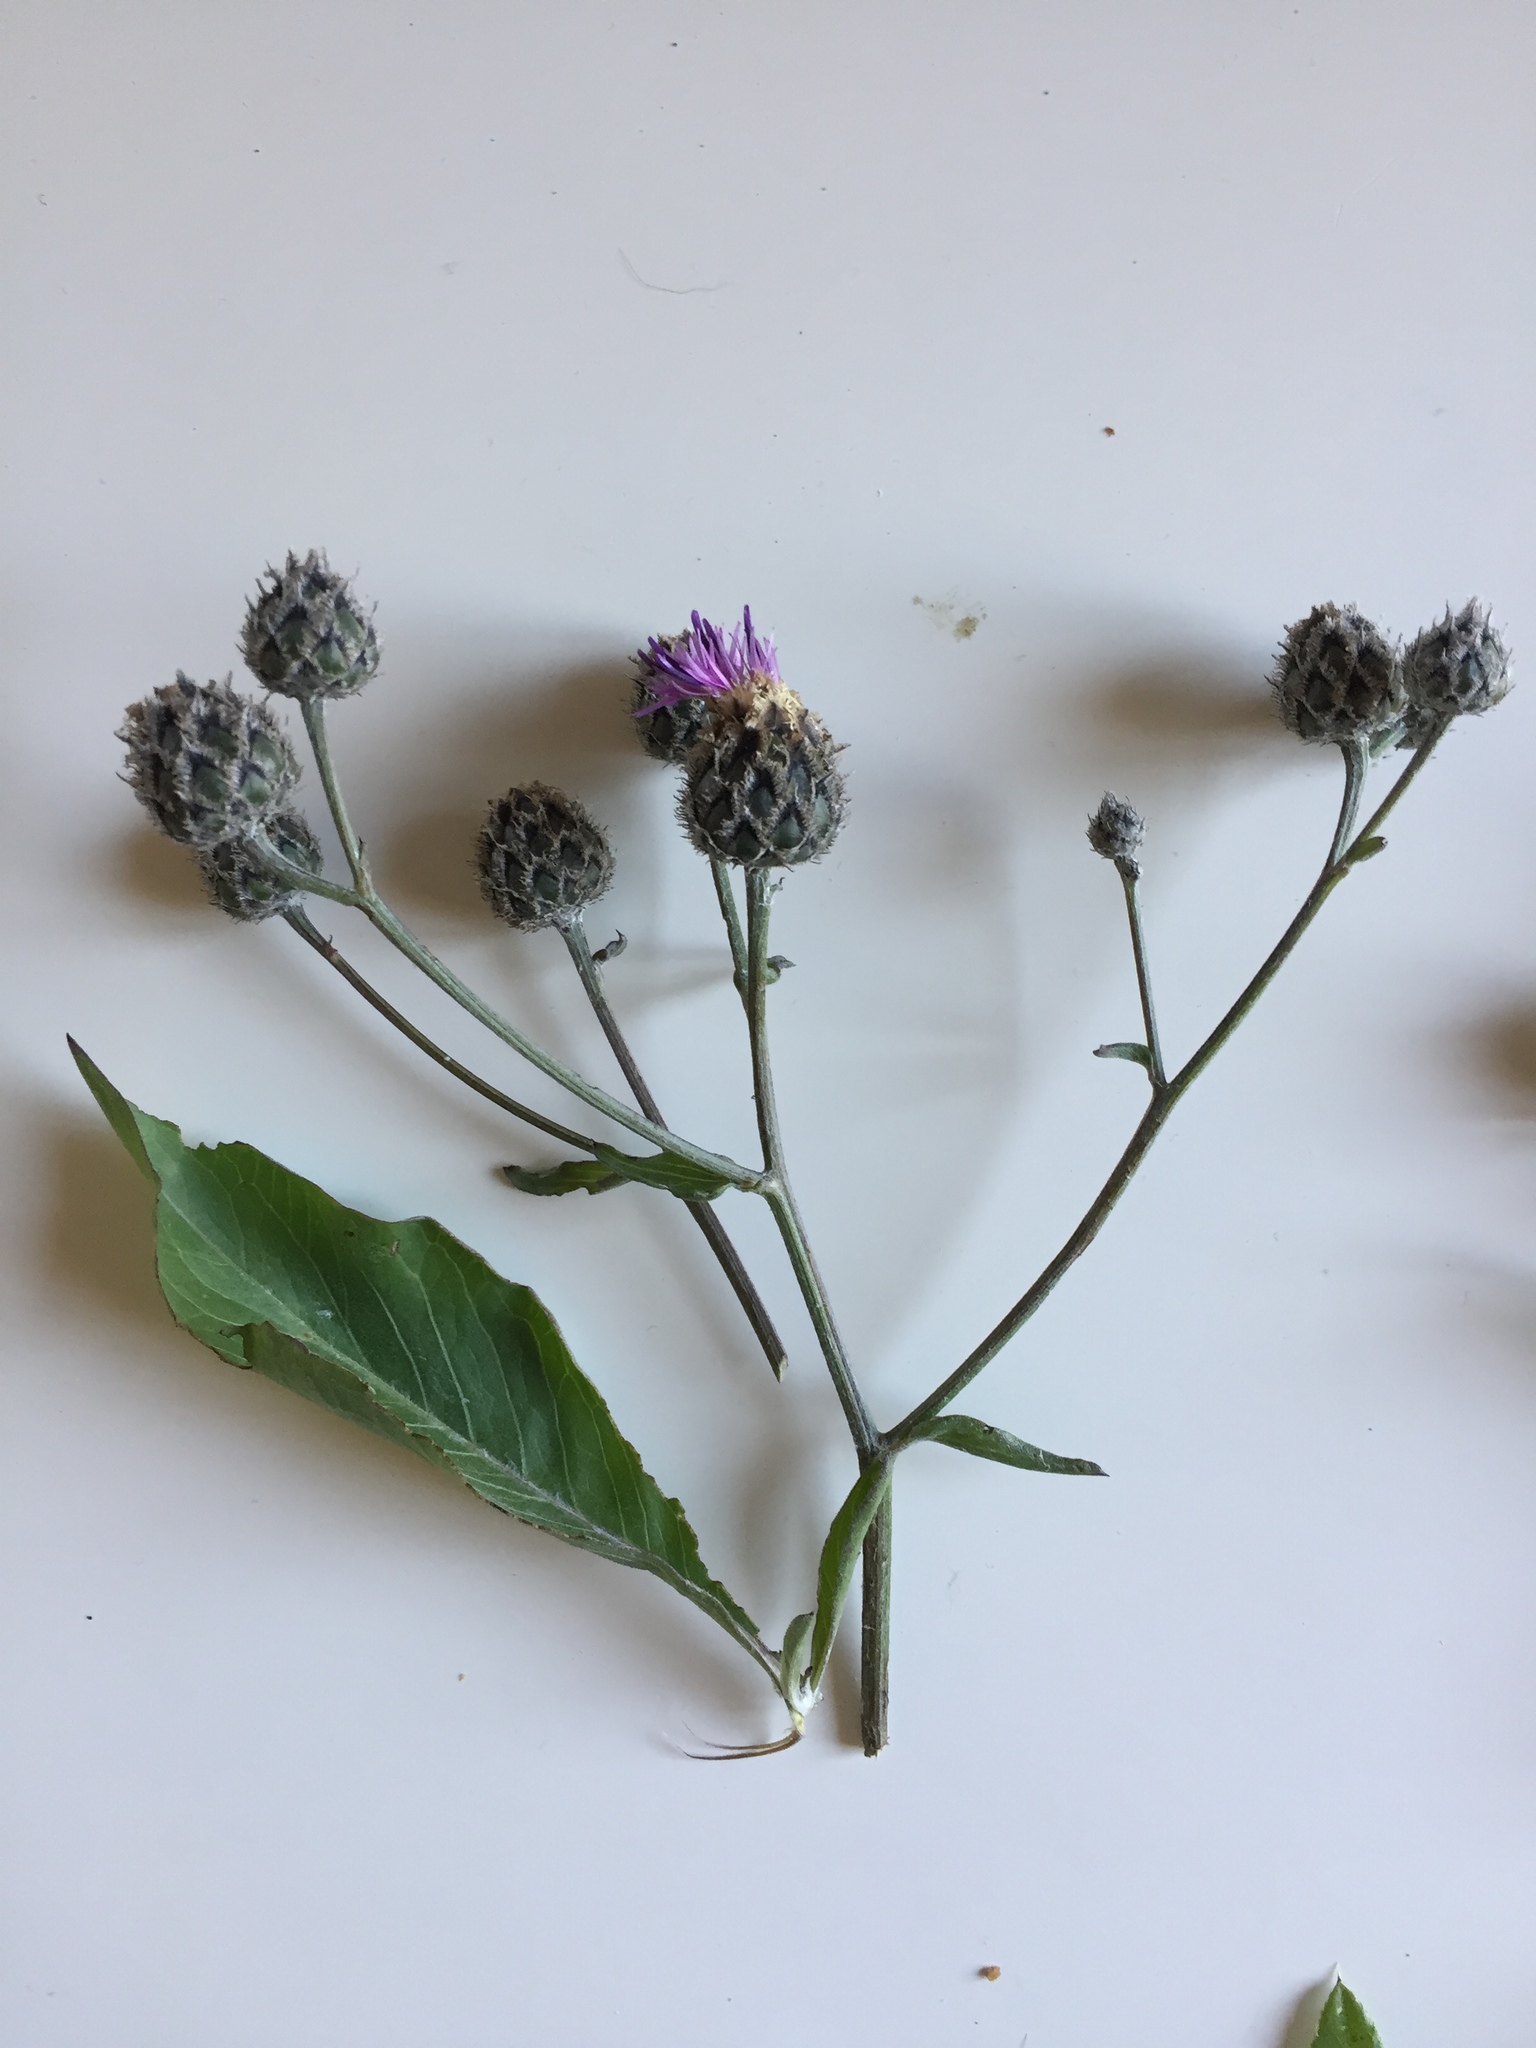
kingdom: Plantae
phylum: Tracheophyta
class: Magnoliopsida
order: Asterales
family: Asteraceae
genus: Centaurea
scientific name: Centaurea apiculata
